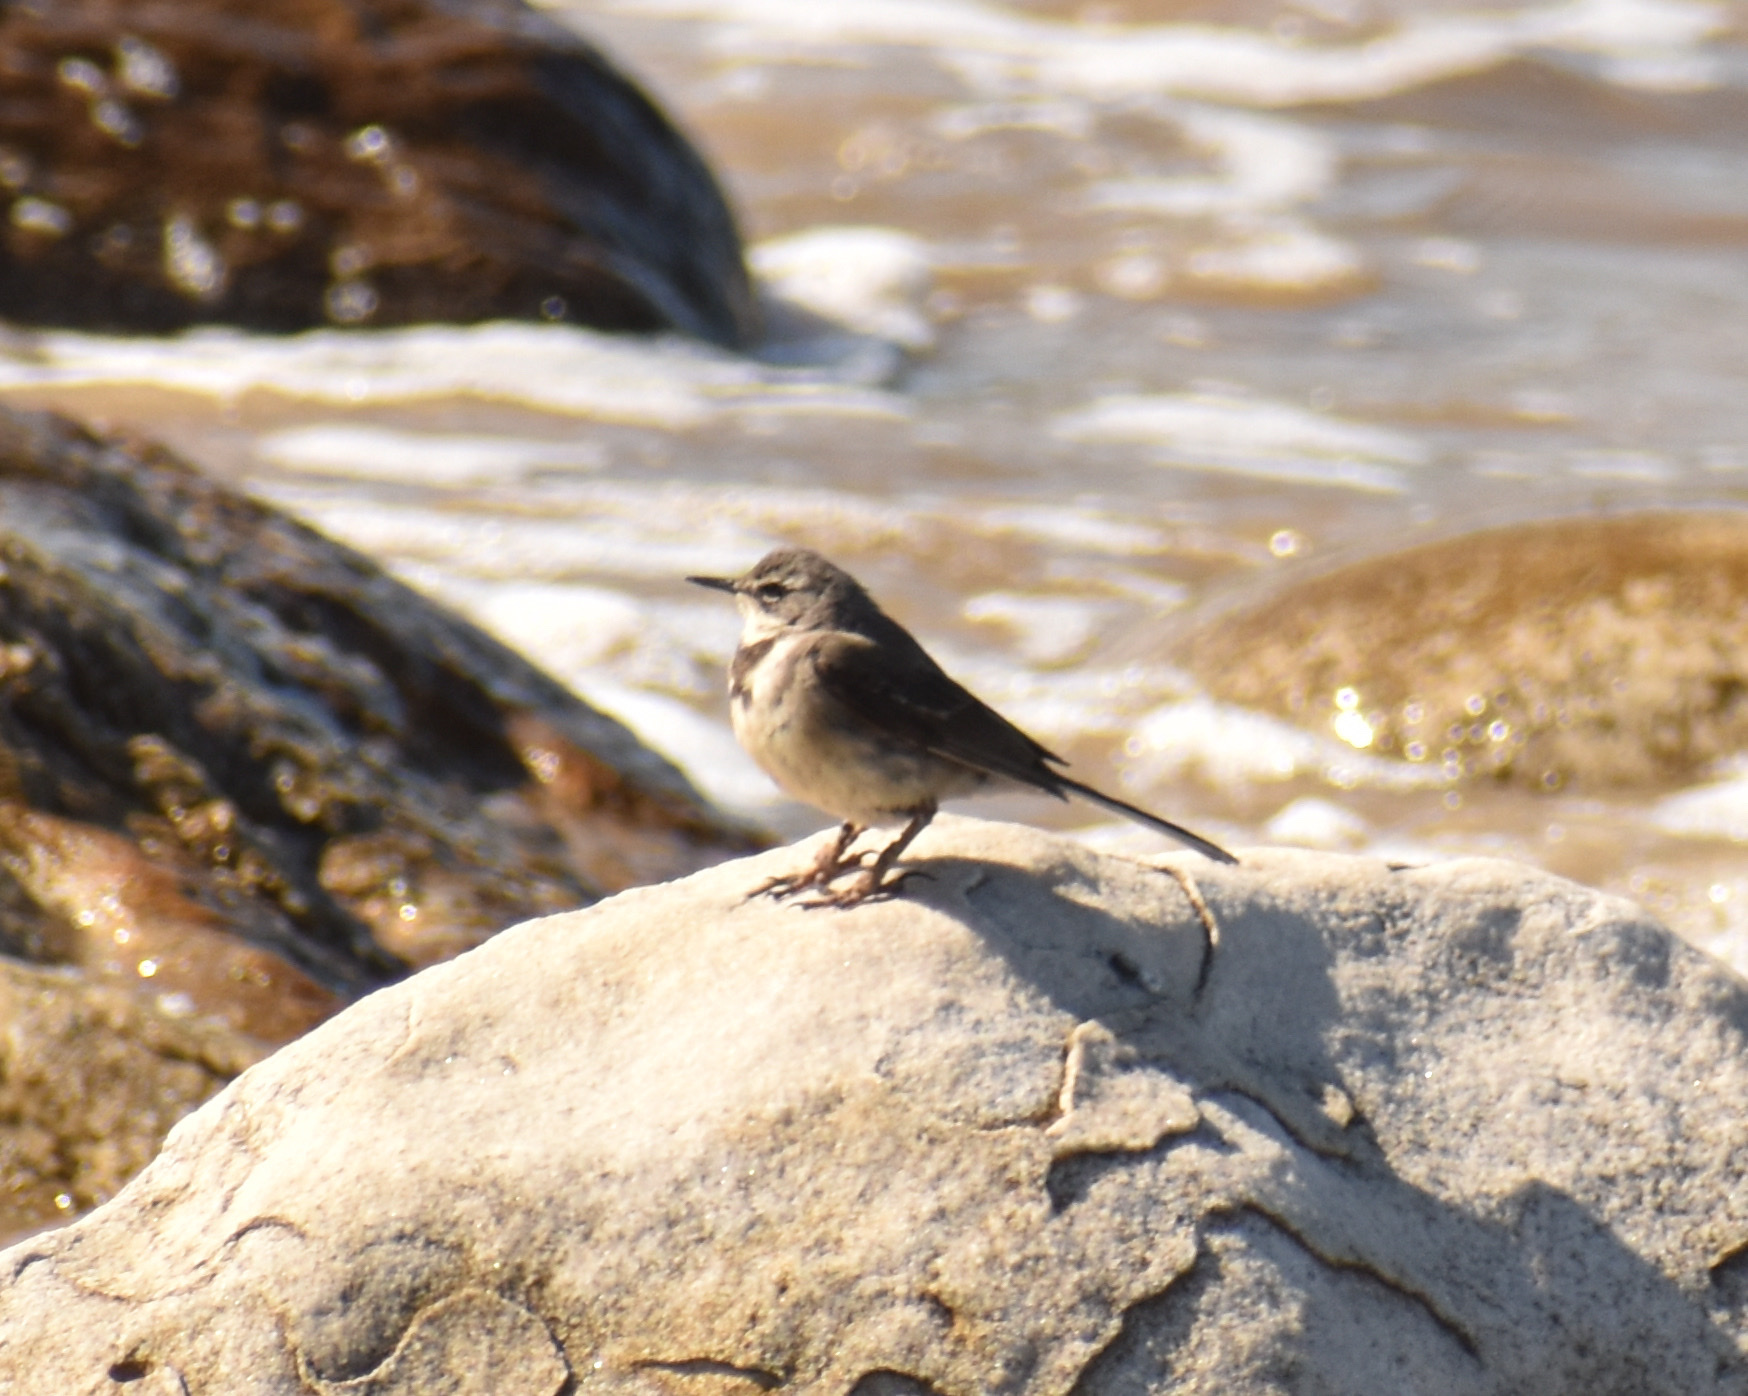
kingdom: Animalia
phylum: Chordata
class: Aves
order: Passeriformes
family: Motacillidae
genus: Motacilla
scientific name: Motacilla capensis
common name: Cape wagtail
